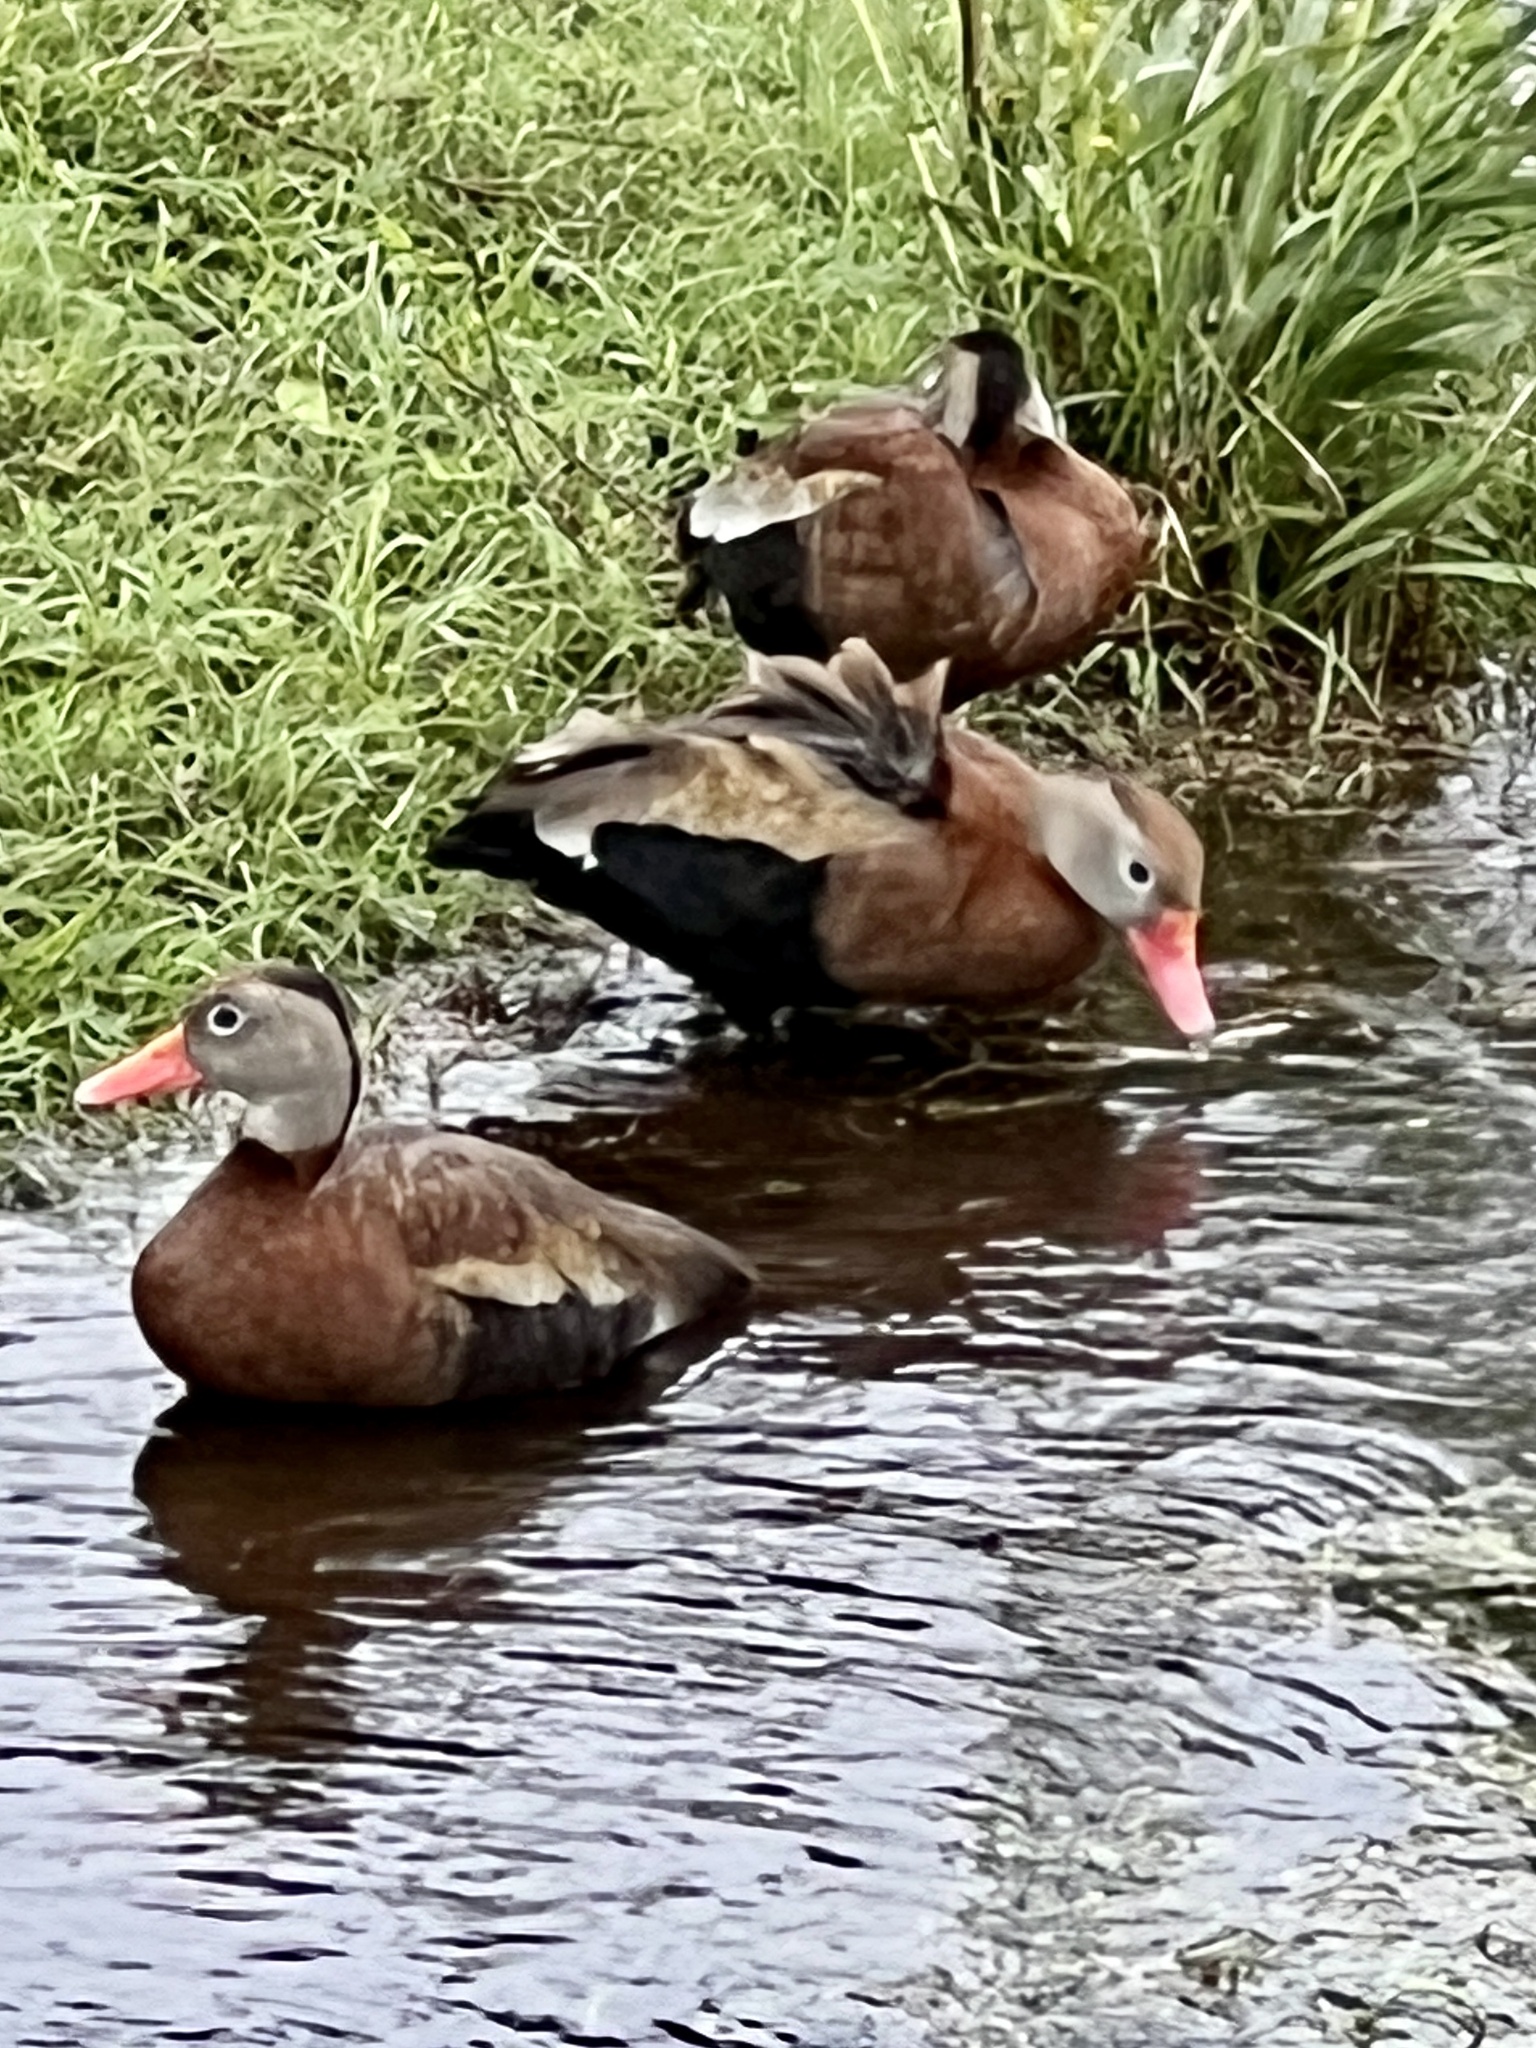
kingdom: Animalia
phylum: Chordata
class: Aves
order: Anseriformes
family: Anatidae
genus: Dendrocygna
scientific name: Dendrocygna autumnalis
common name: Black-bellied whistling duck
